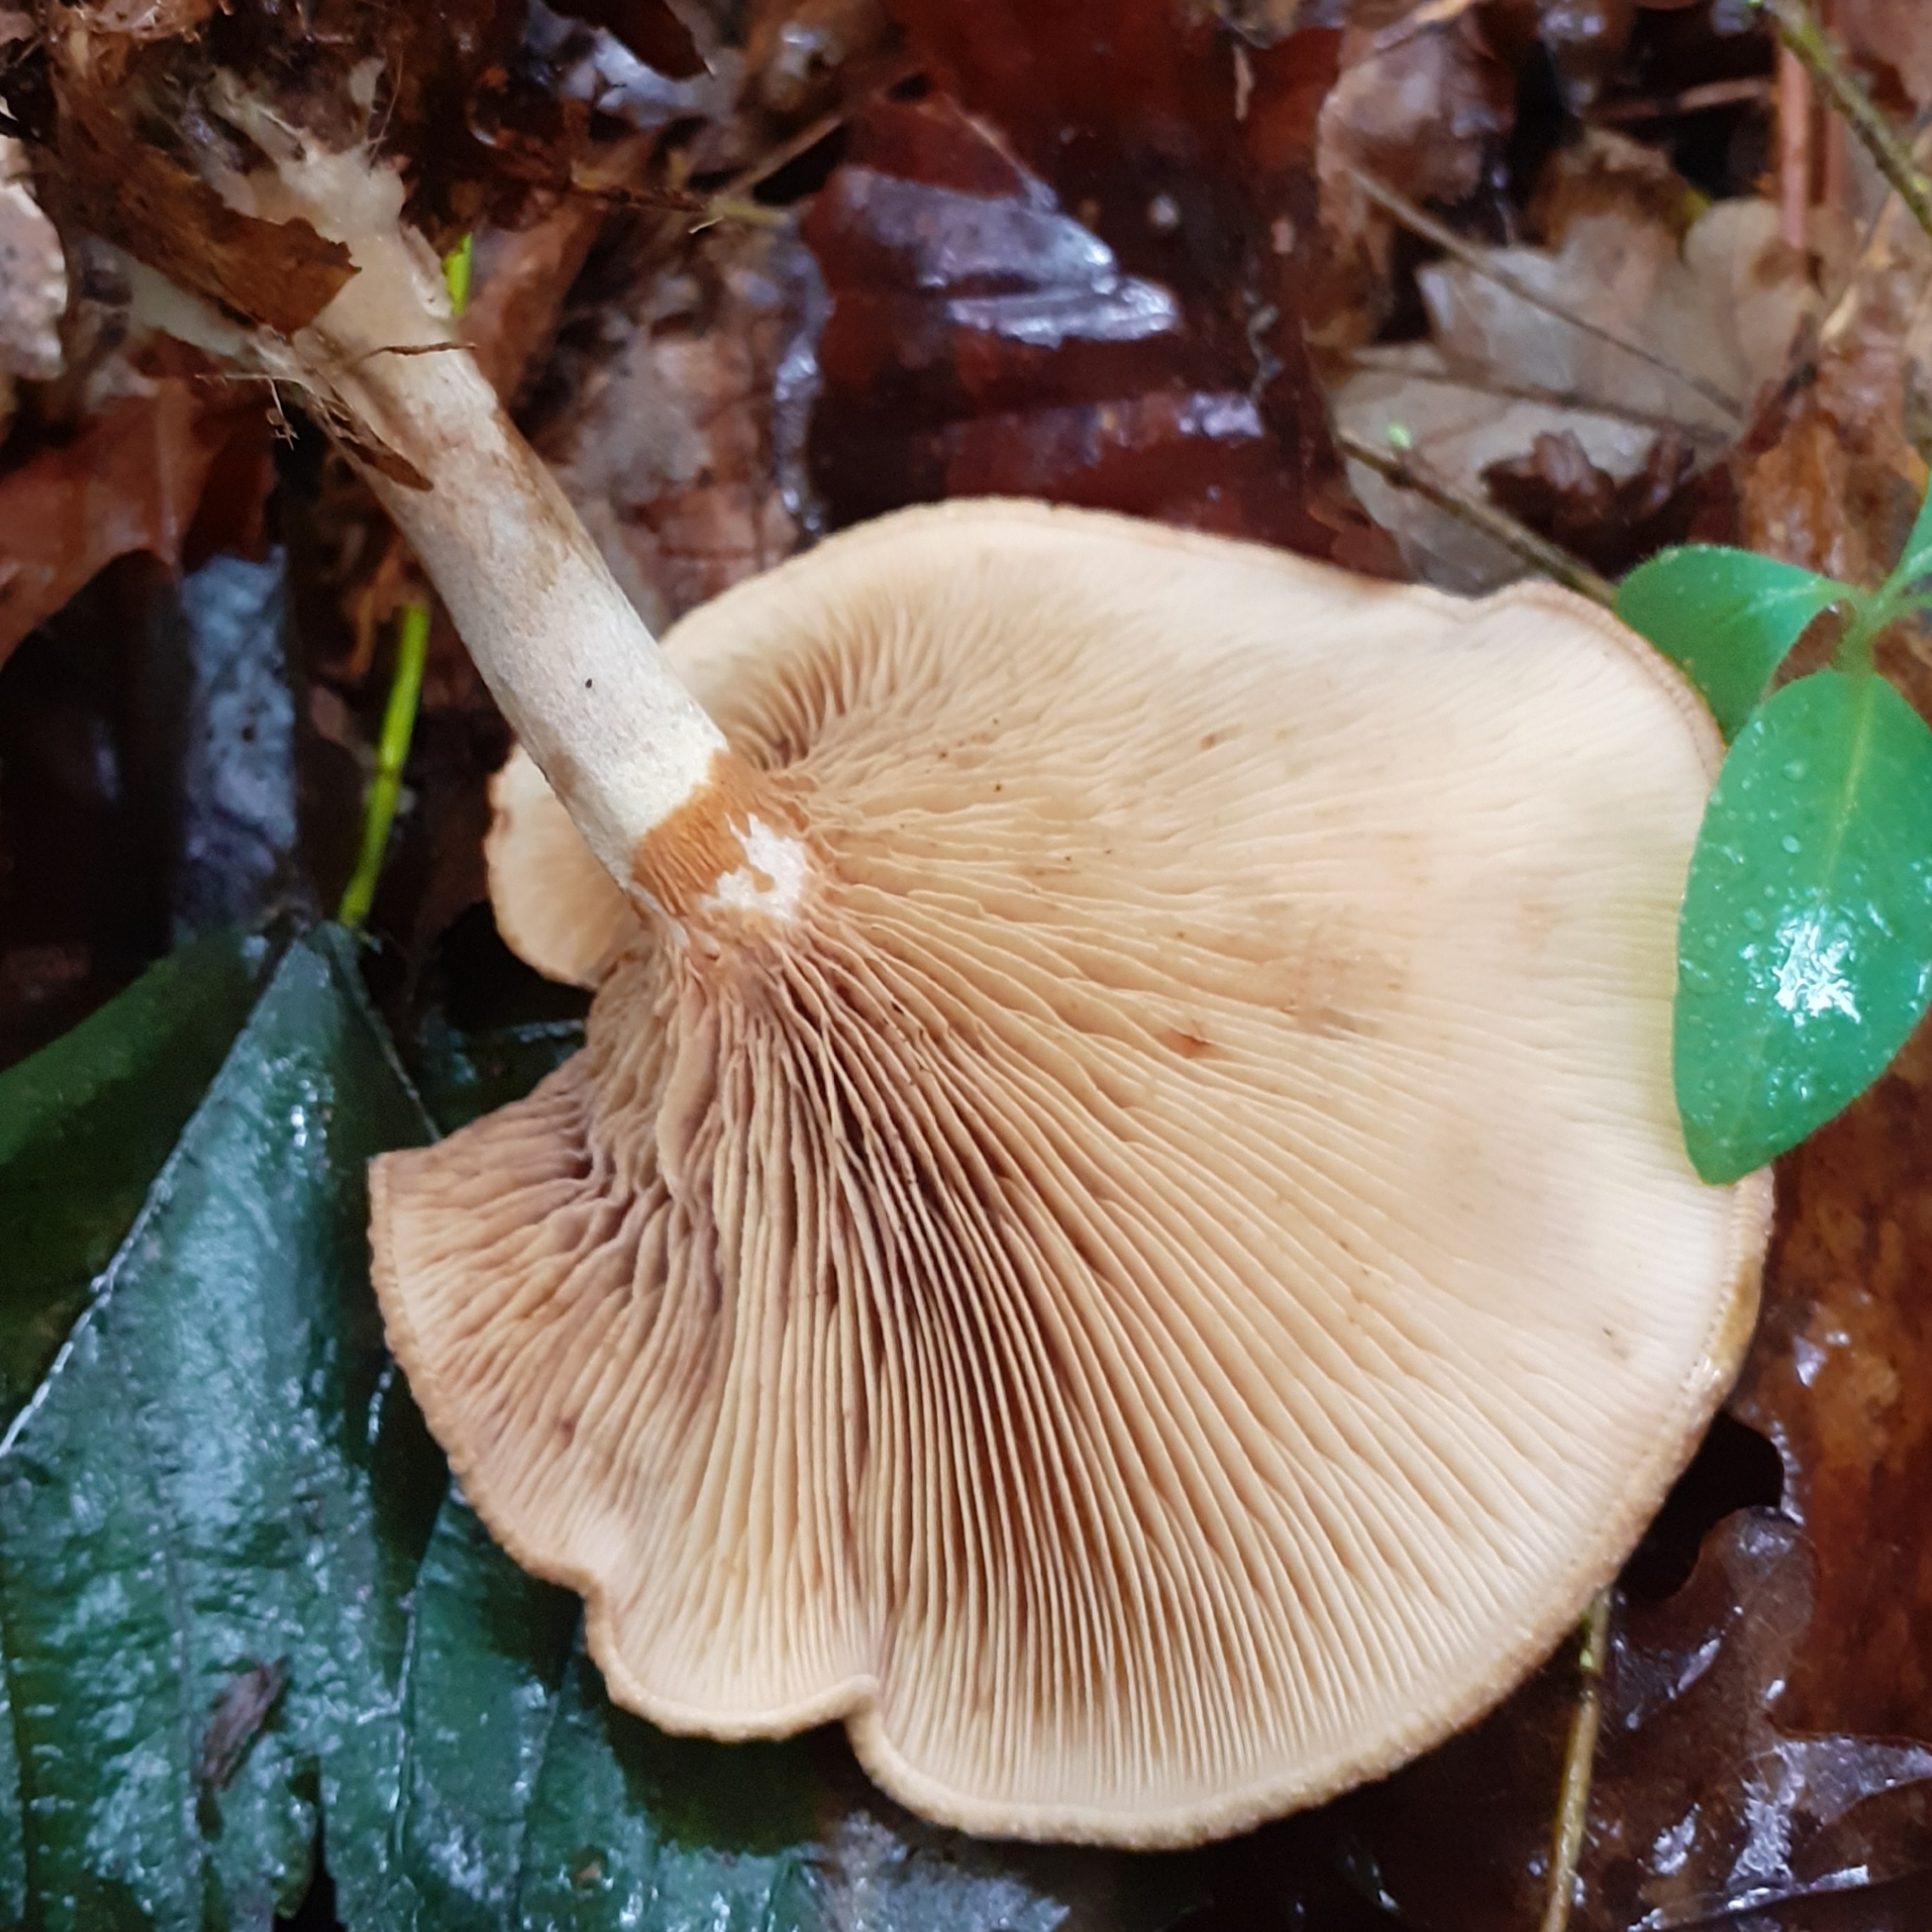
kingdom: Fungi
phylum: Basidiomycota
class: Agaricomycetes
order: Boletales
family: Paxillaceae
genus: Paxillus
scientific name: Paxillus involutus
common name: Brown roll rim
